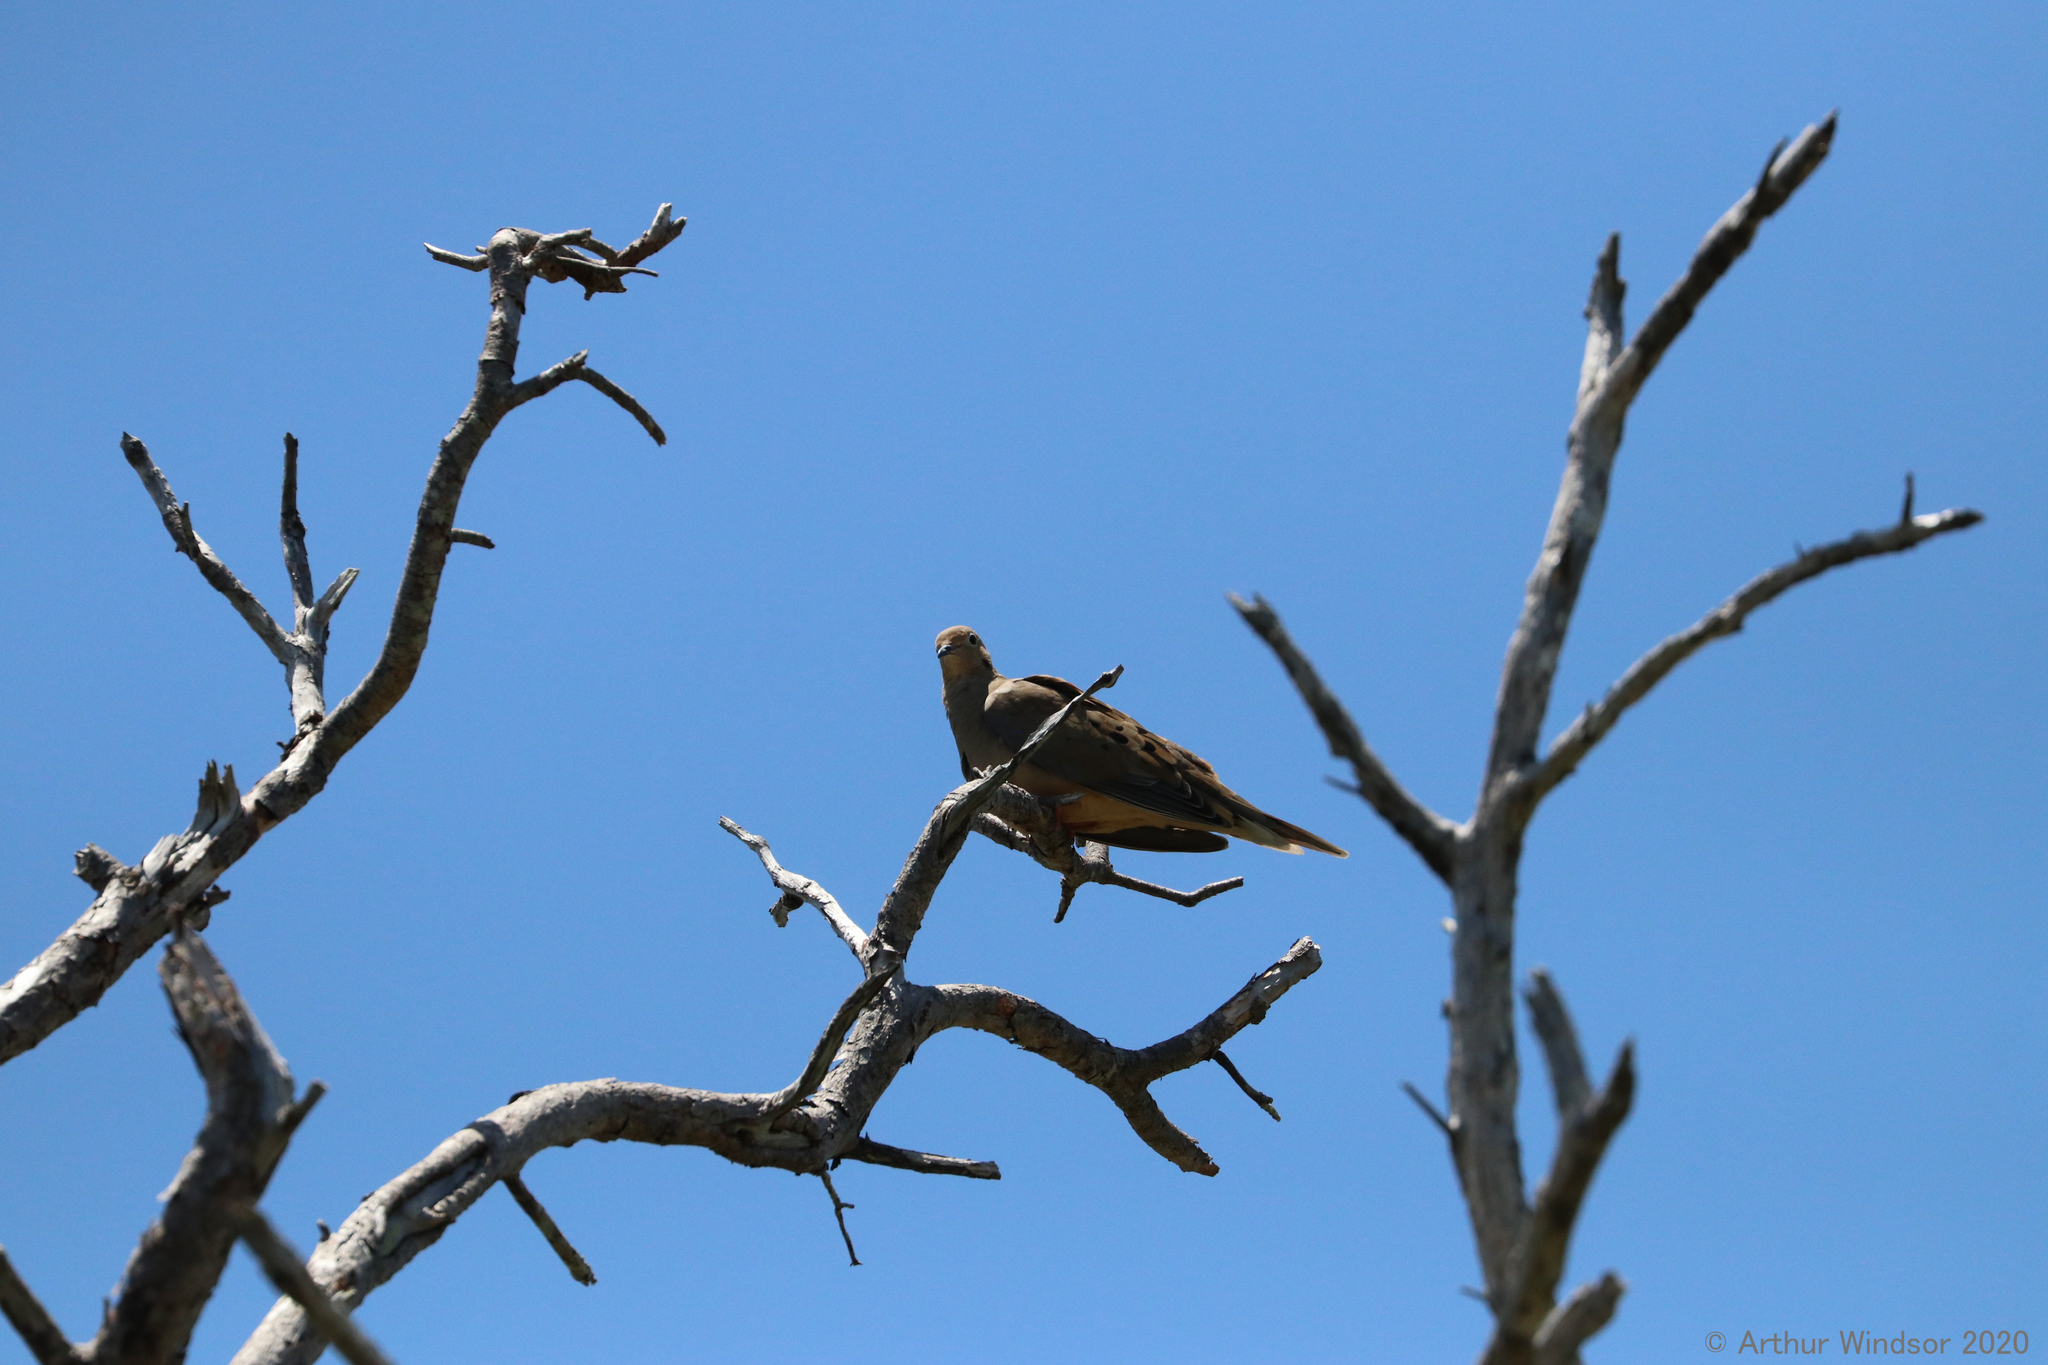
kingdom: Animalia
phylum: Chordata
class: Aves
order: Columbiformes
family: Columbidae
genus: Zenaida
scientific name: Zenaida macroura
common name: Mourning dove
